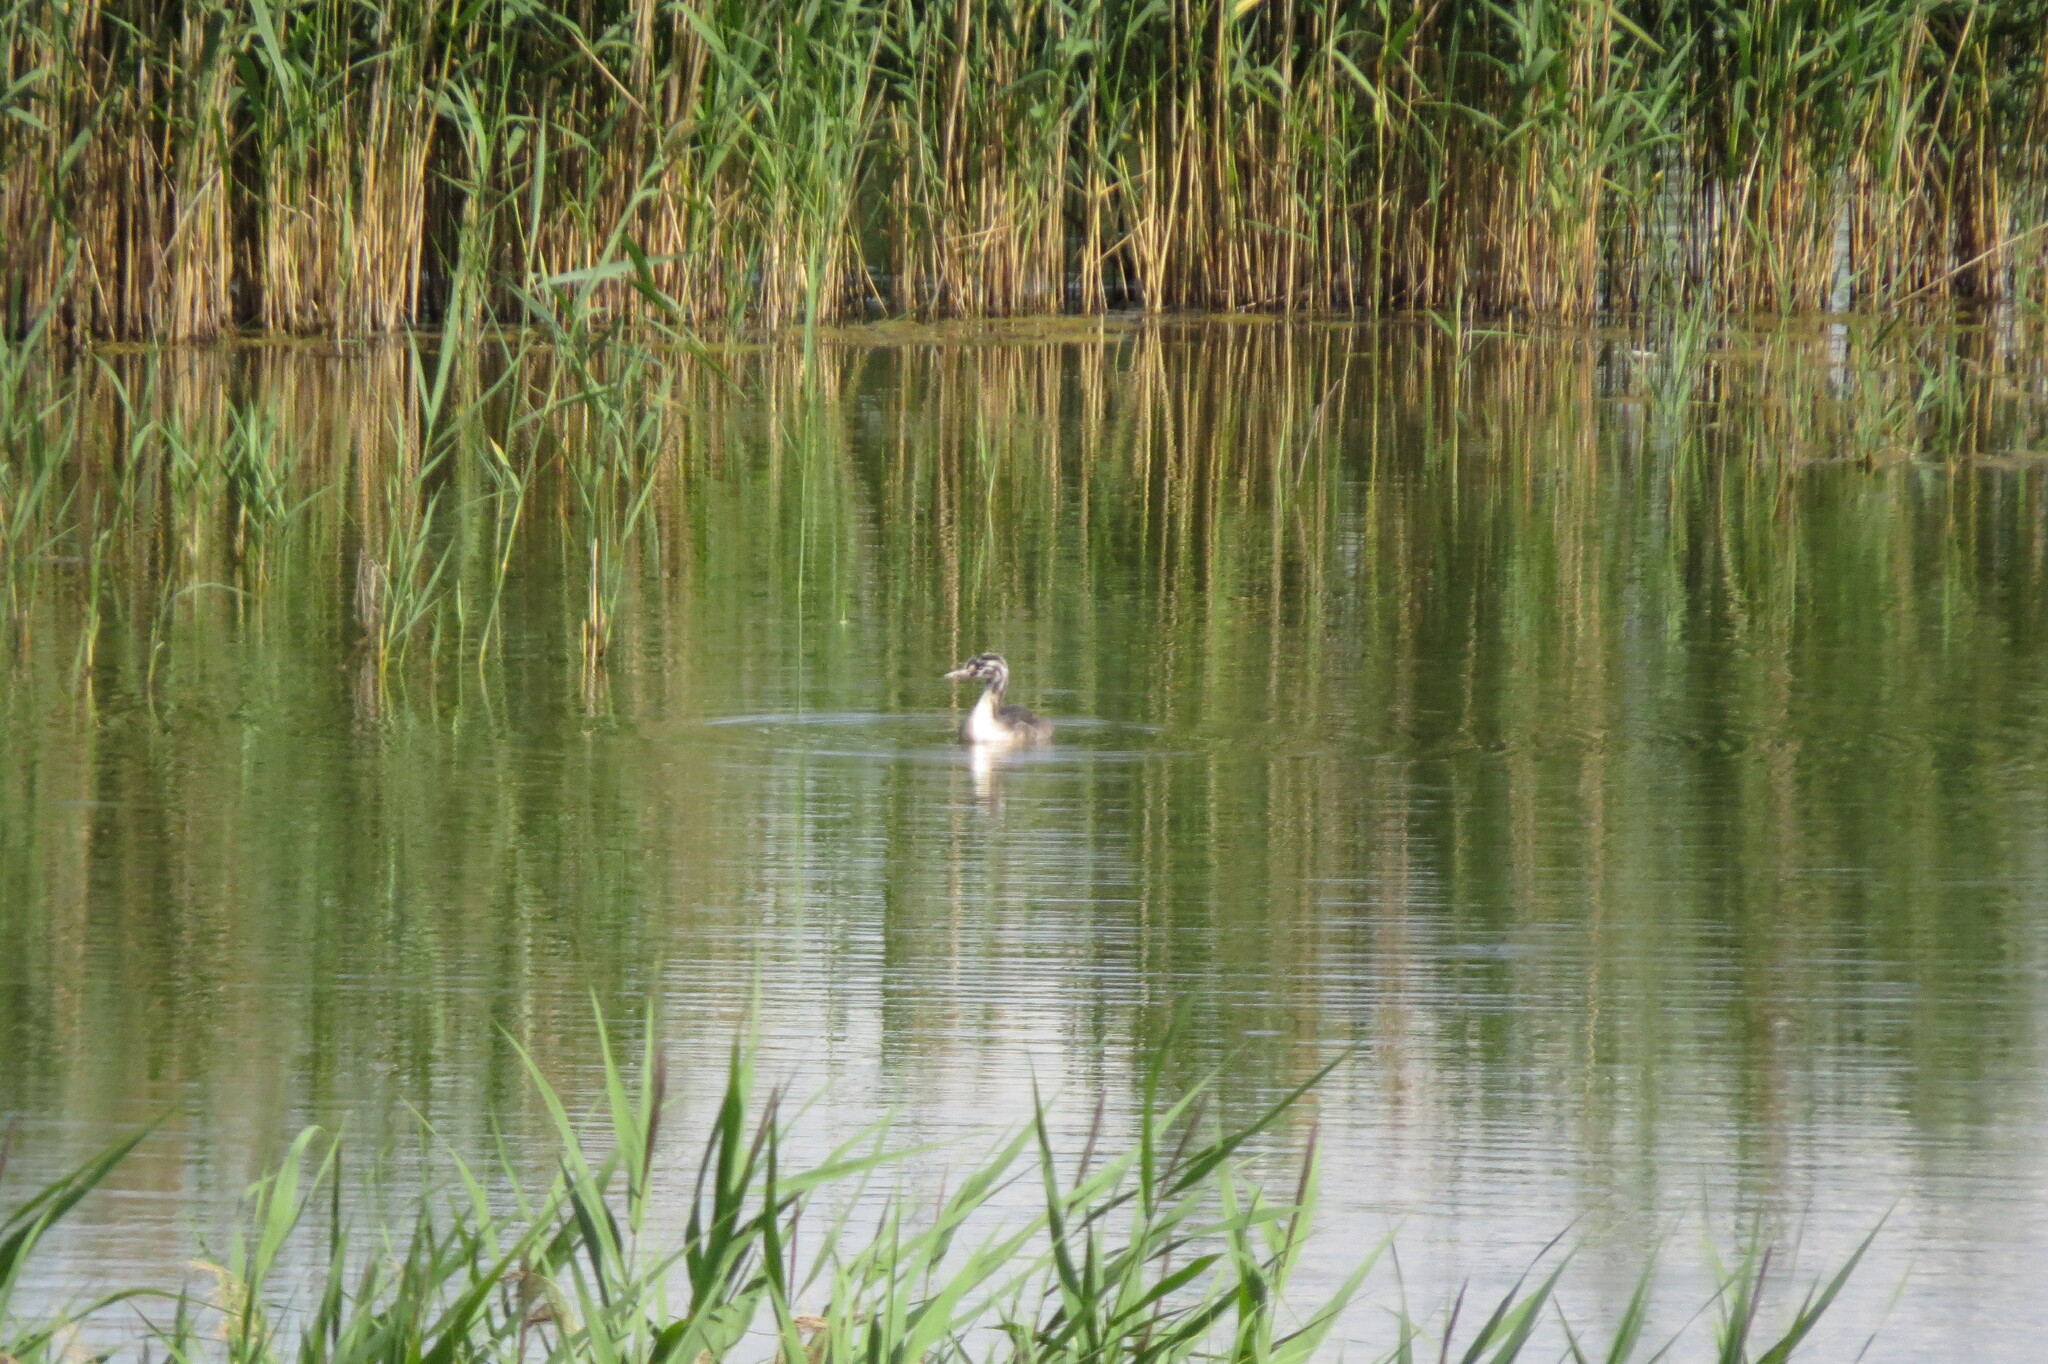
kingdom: Animalia
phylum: Chordata
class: Aves
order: Podicipediformes
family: Podicipedidae
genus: Podiceps
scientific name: Podiceps cristatus
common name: Great crested grebe
